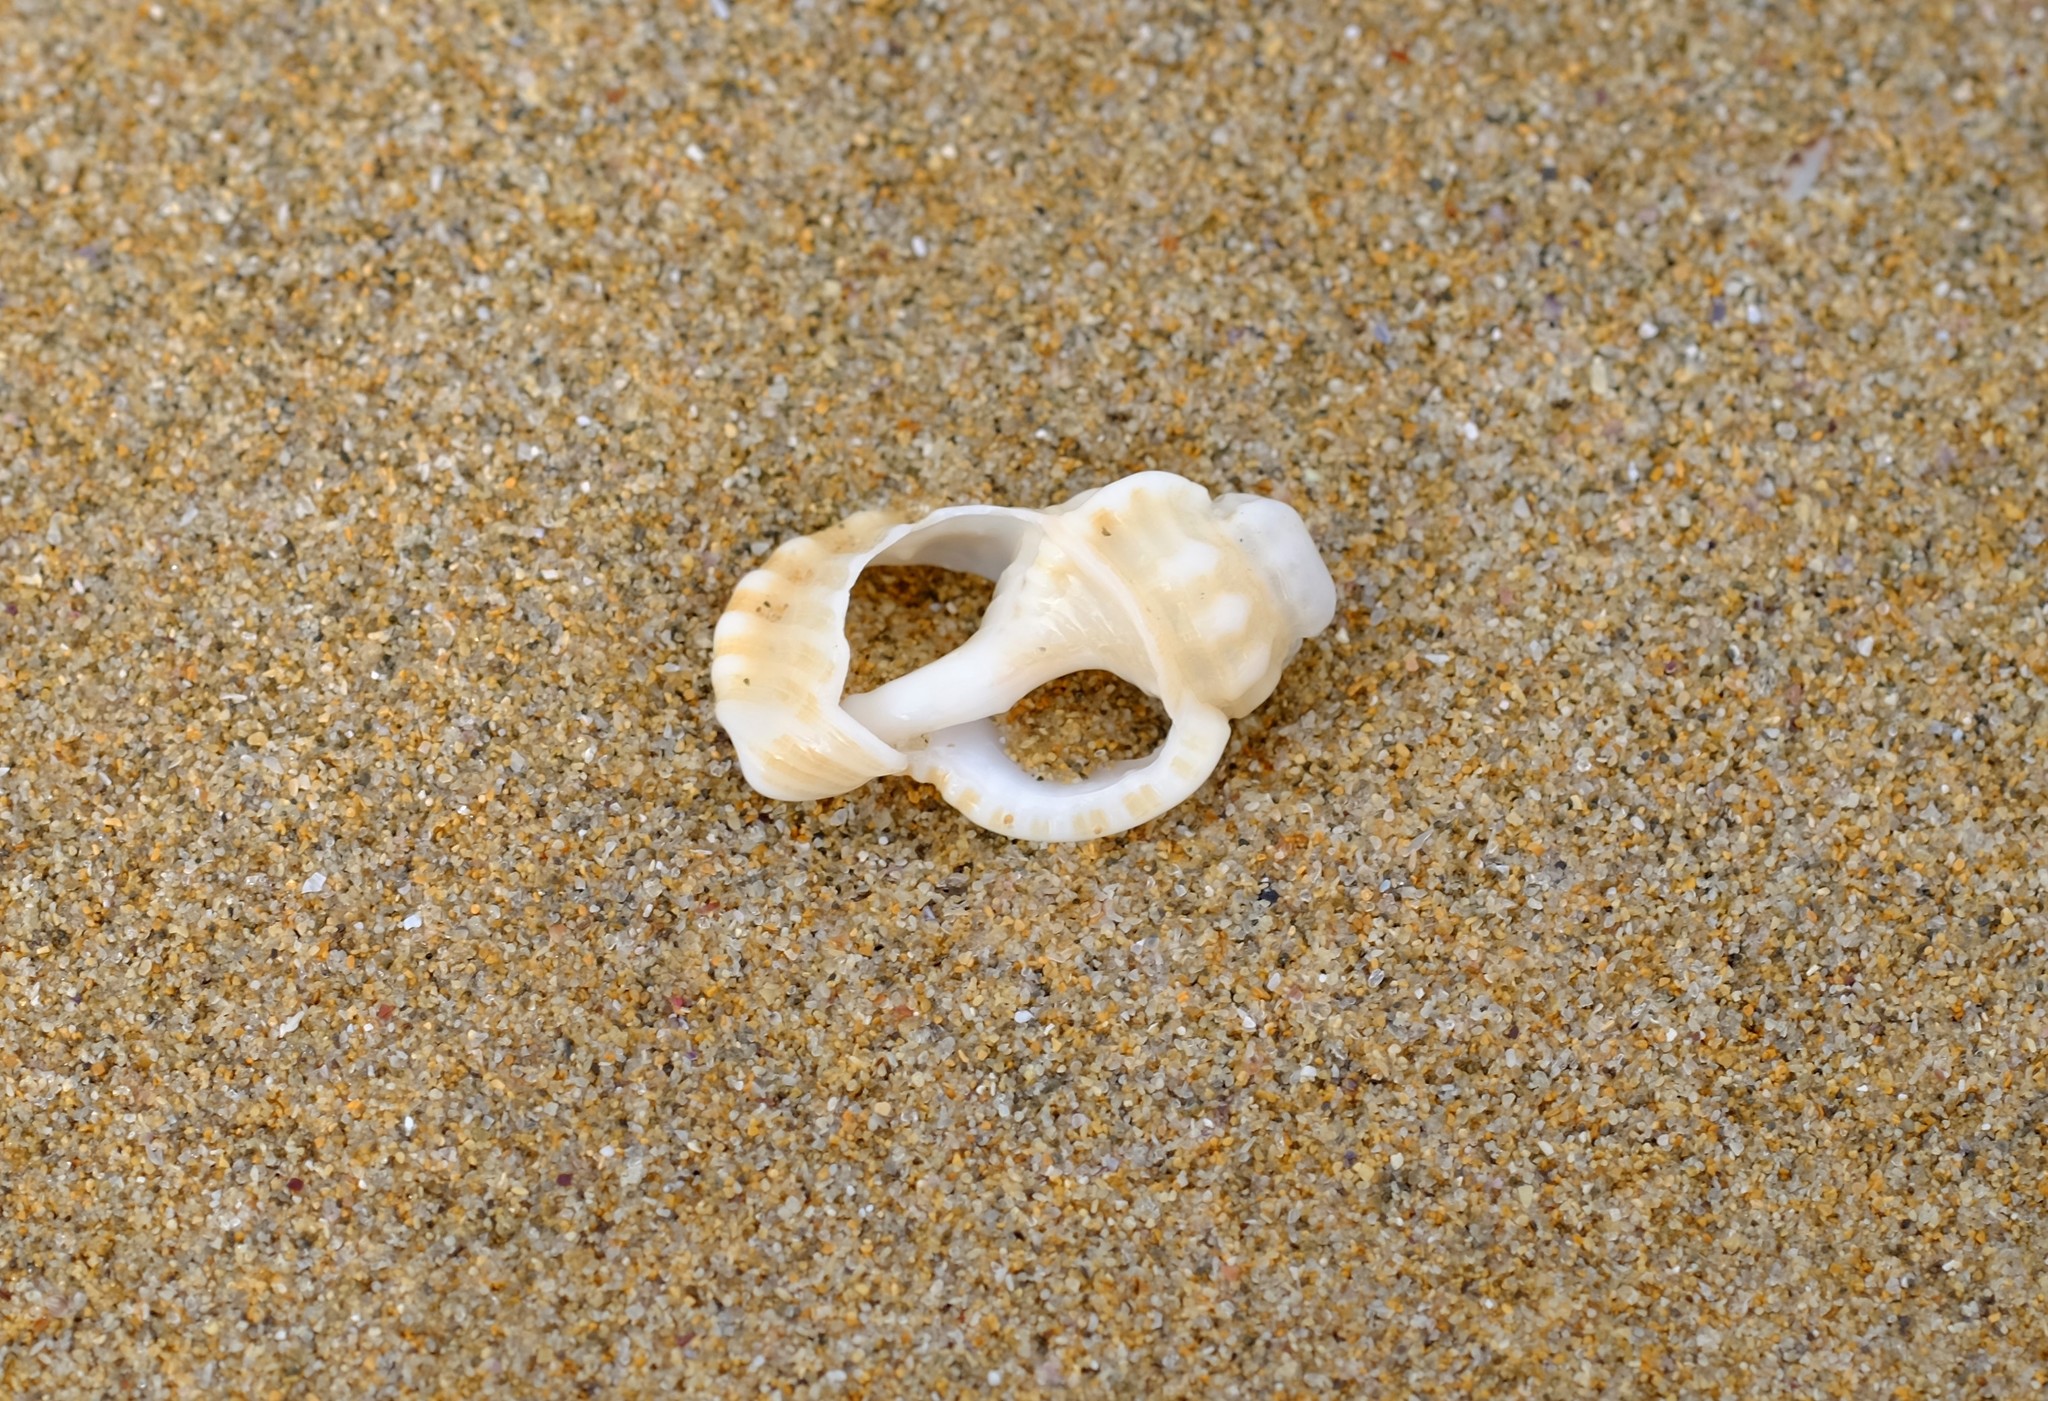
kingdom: Animalia
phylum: Mollusca
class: Gastropoda
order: Littorinimorpha
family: Cymatiidae
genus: Cabestana
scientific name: Cabestana tabulata
